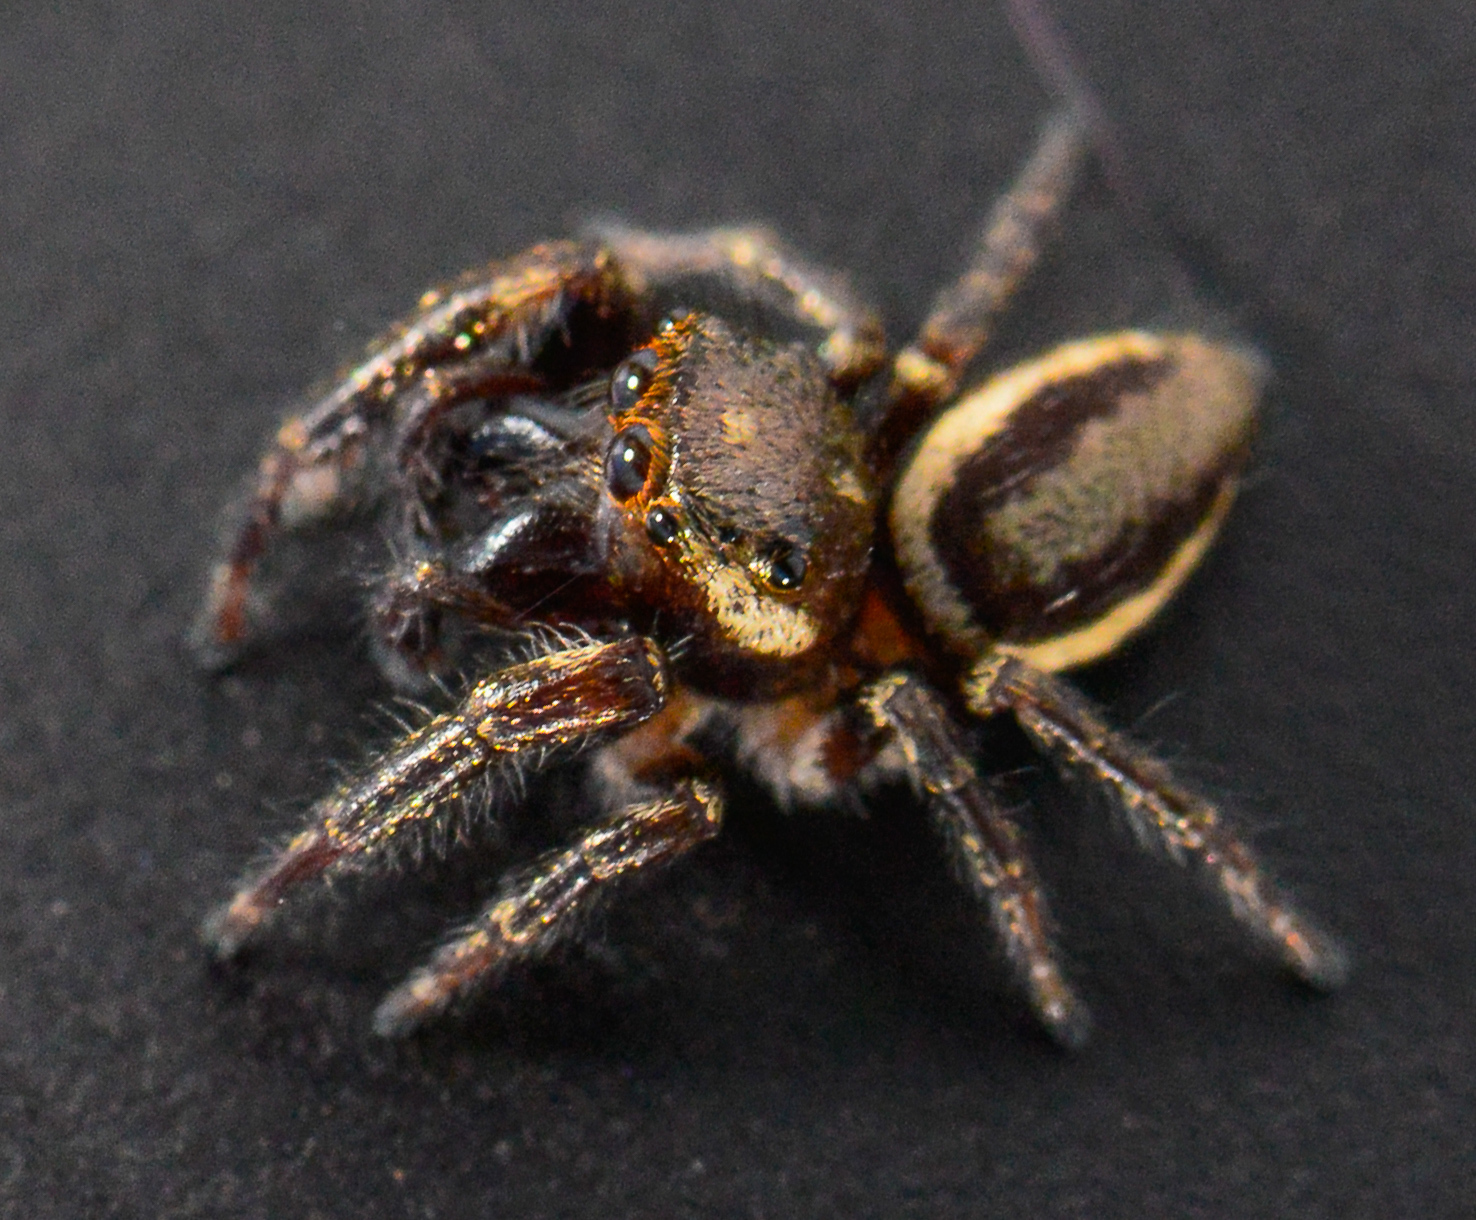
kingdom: Animalia
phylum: Arthropoda
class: Arachnida
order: Araneae
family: Salticidae
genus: Eris
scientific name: Eris militaris
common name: Bronze jumper
